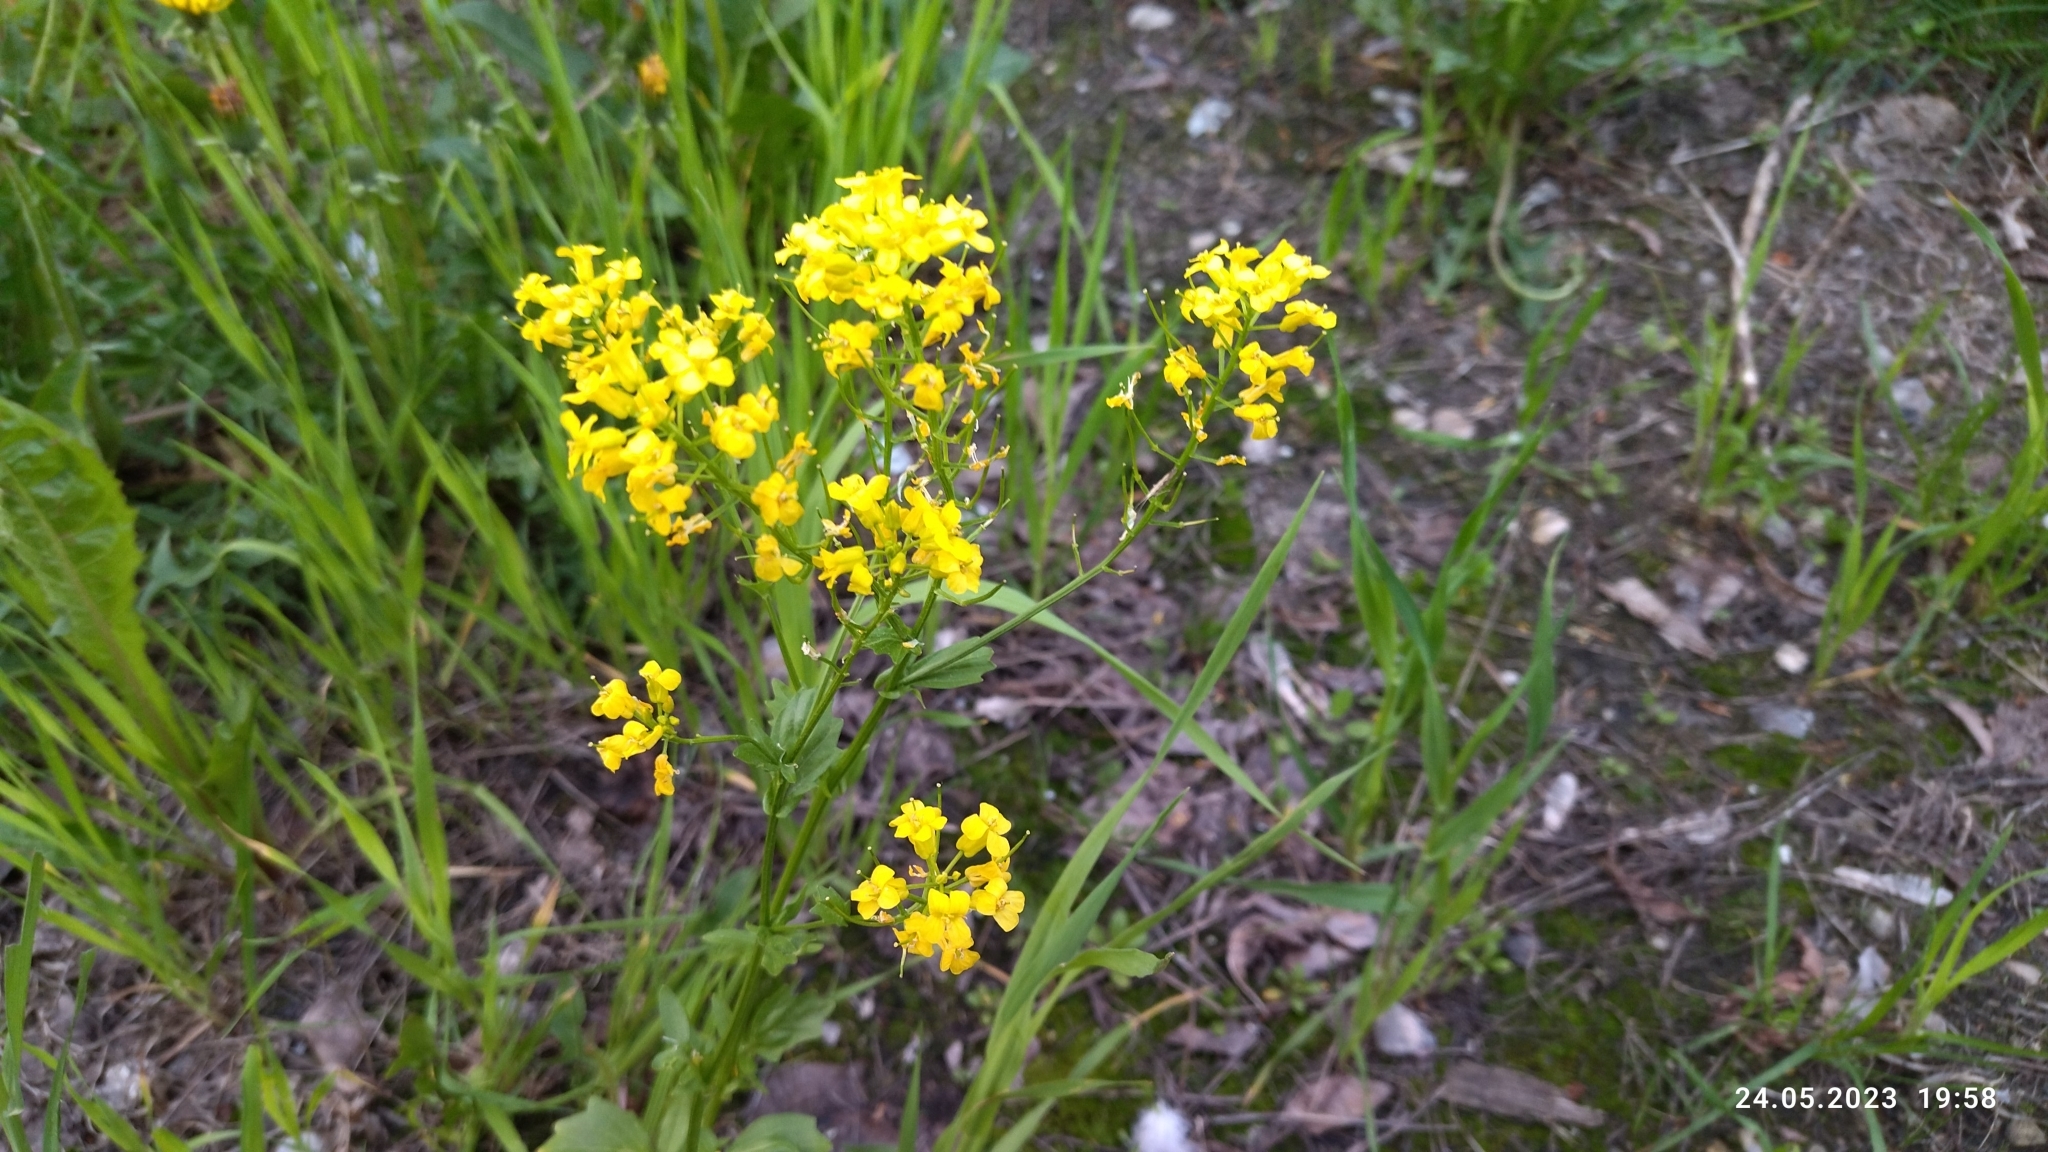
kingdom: Plantae
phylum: Tracheophyta
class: Magnoliopsida
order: Brassicales
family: Brassicaceae
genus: Barbarea
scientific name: Barbarea vulgaris
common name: Cressy-greens
